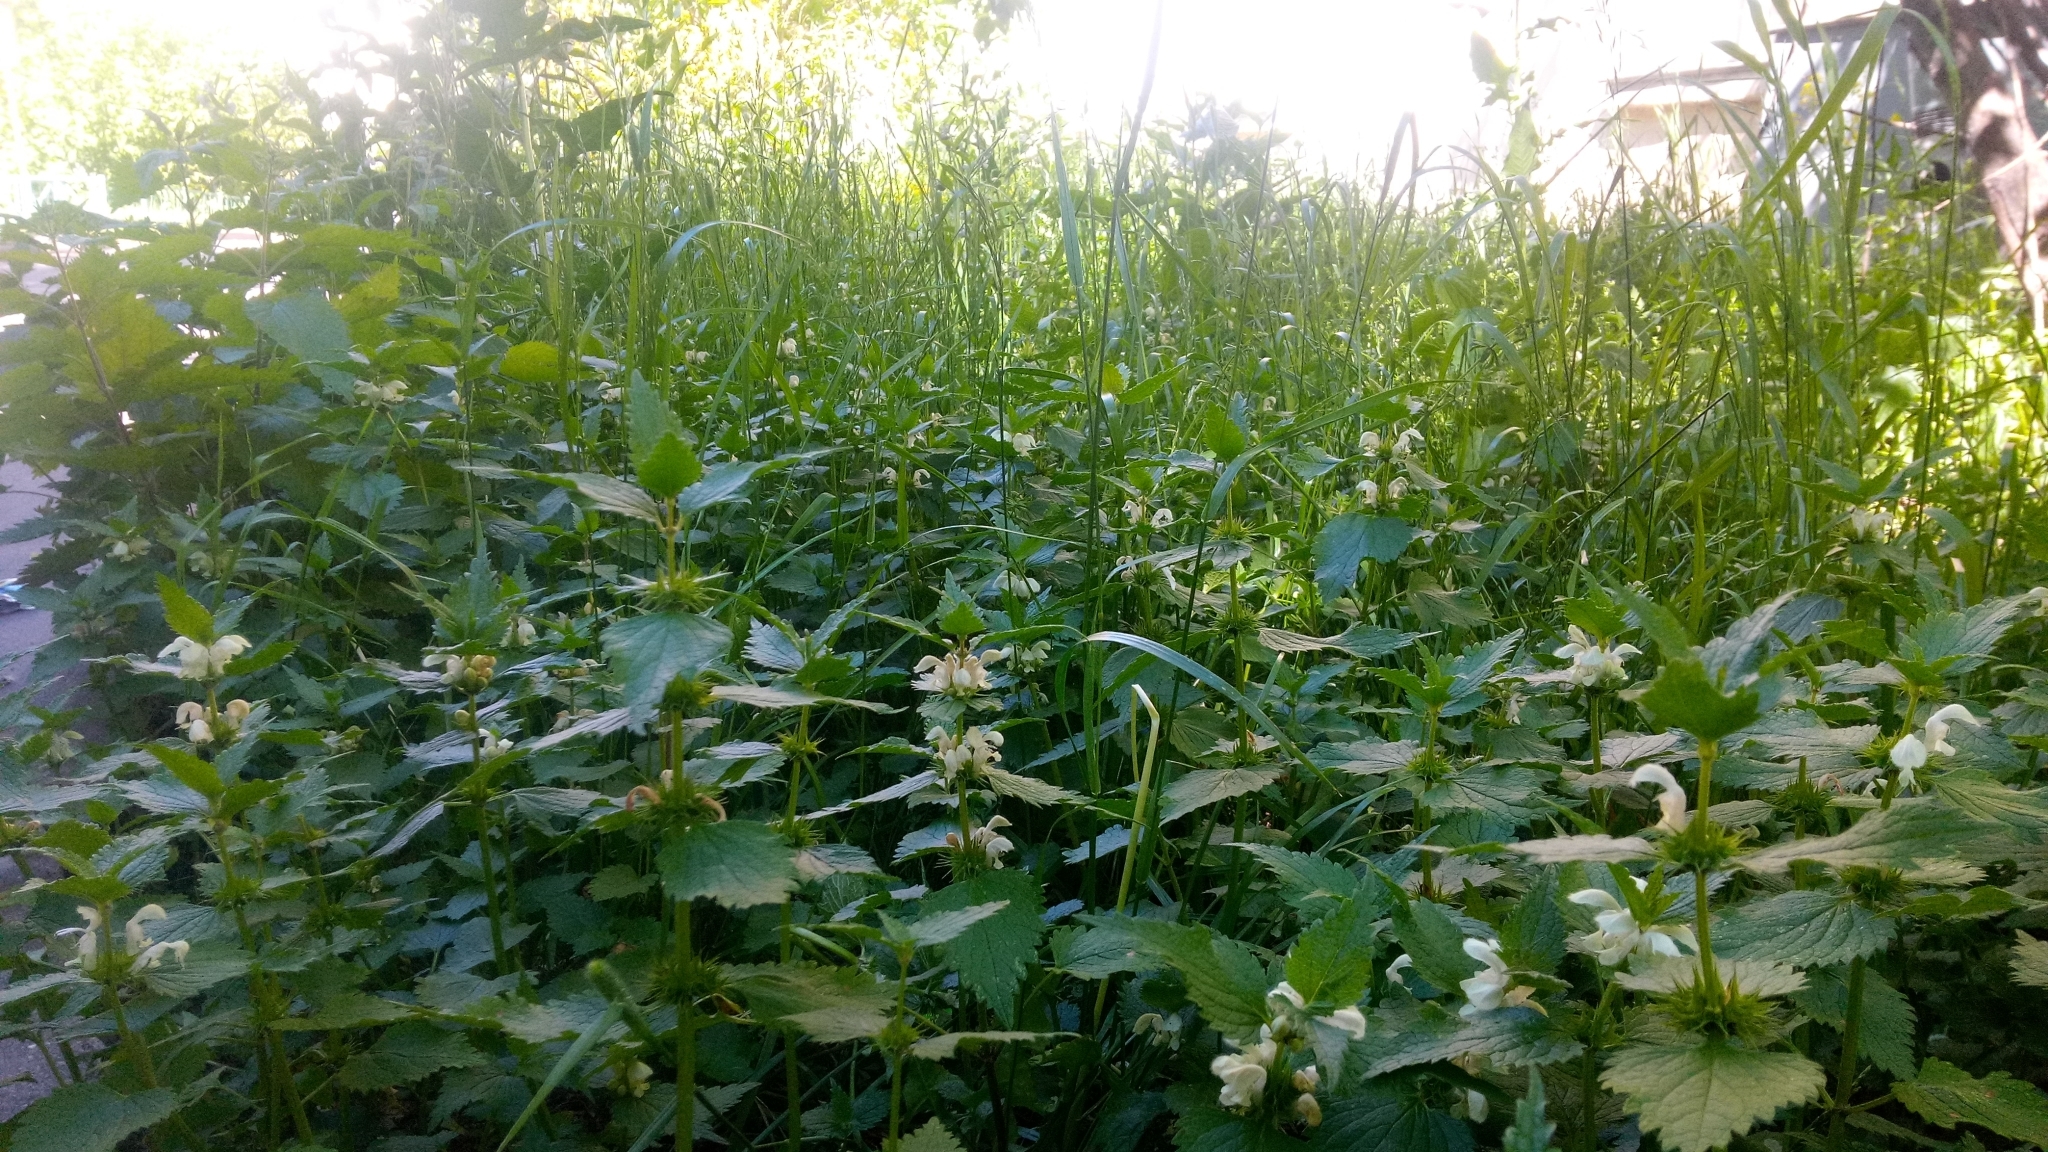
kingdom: Plantae
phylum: Tracheophyta
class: Magnoliopsida
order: Lamiales
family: Lamiaceae
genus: Lamium
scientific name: Lamium album
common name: White dead-nettle
